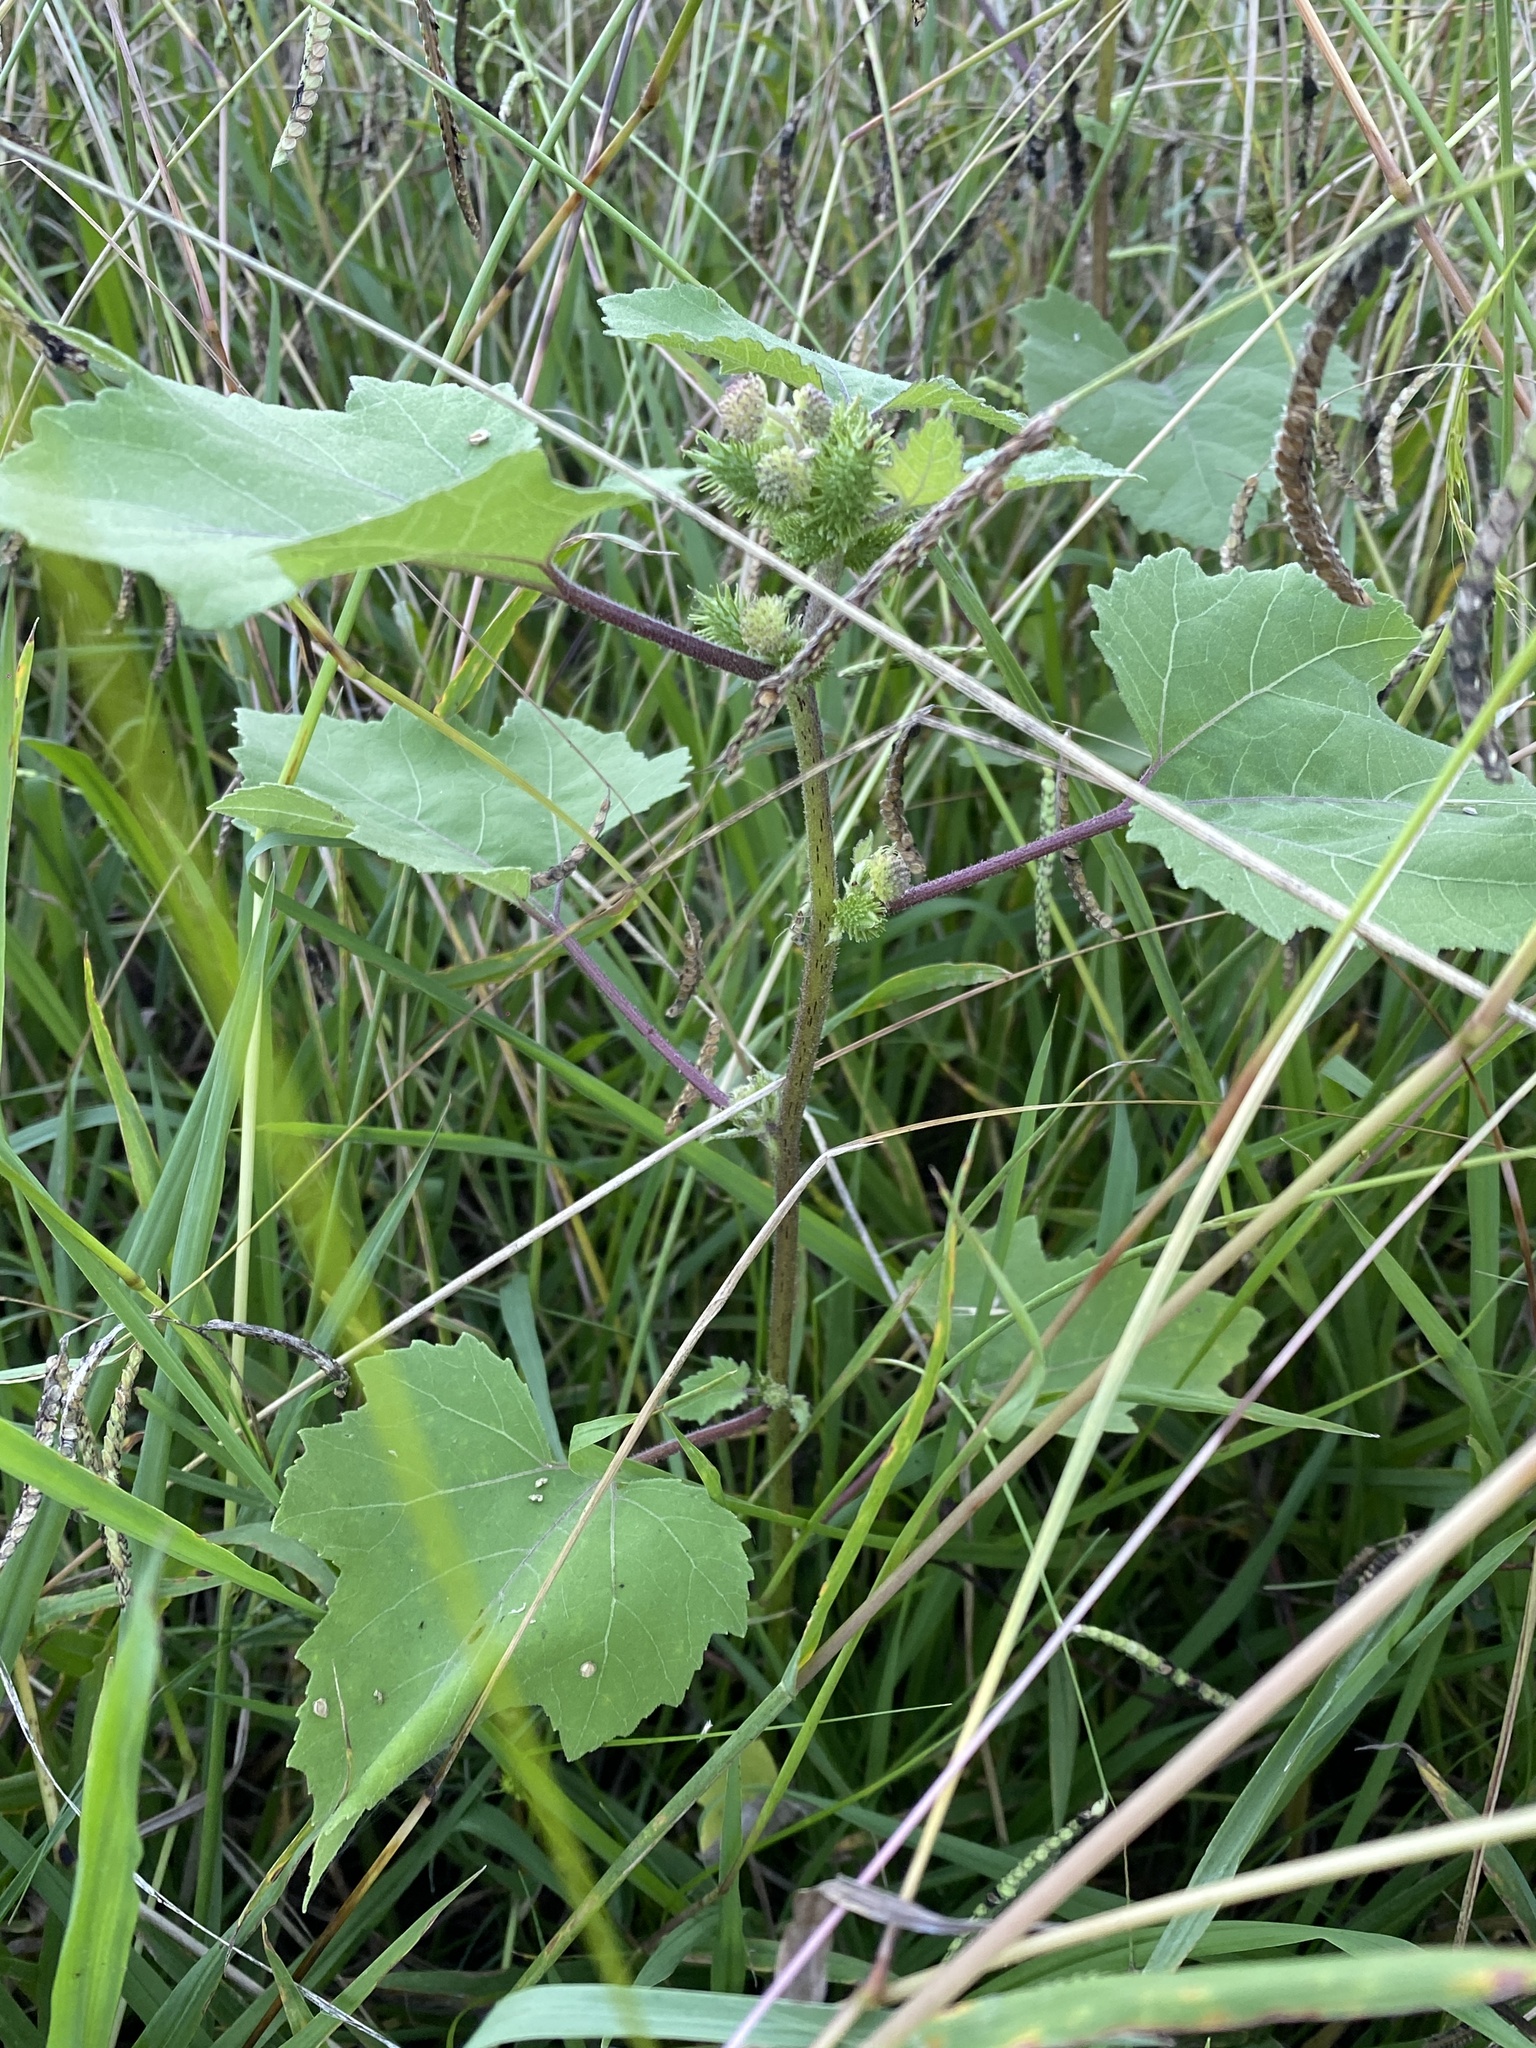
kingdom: Plantae
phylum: Tracheophyta
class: Magnoliopsida
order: Asterales
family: Asteraceae
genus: Xanthium
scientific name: Xanthium strumarium
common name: Rough cocklebur
